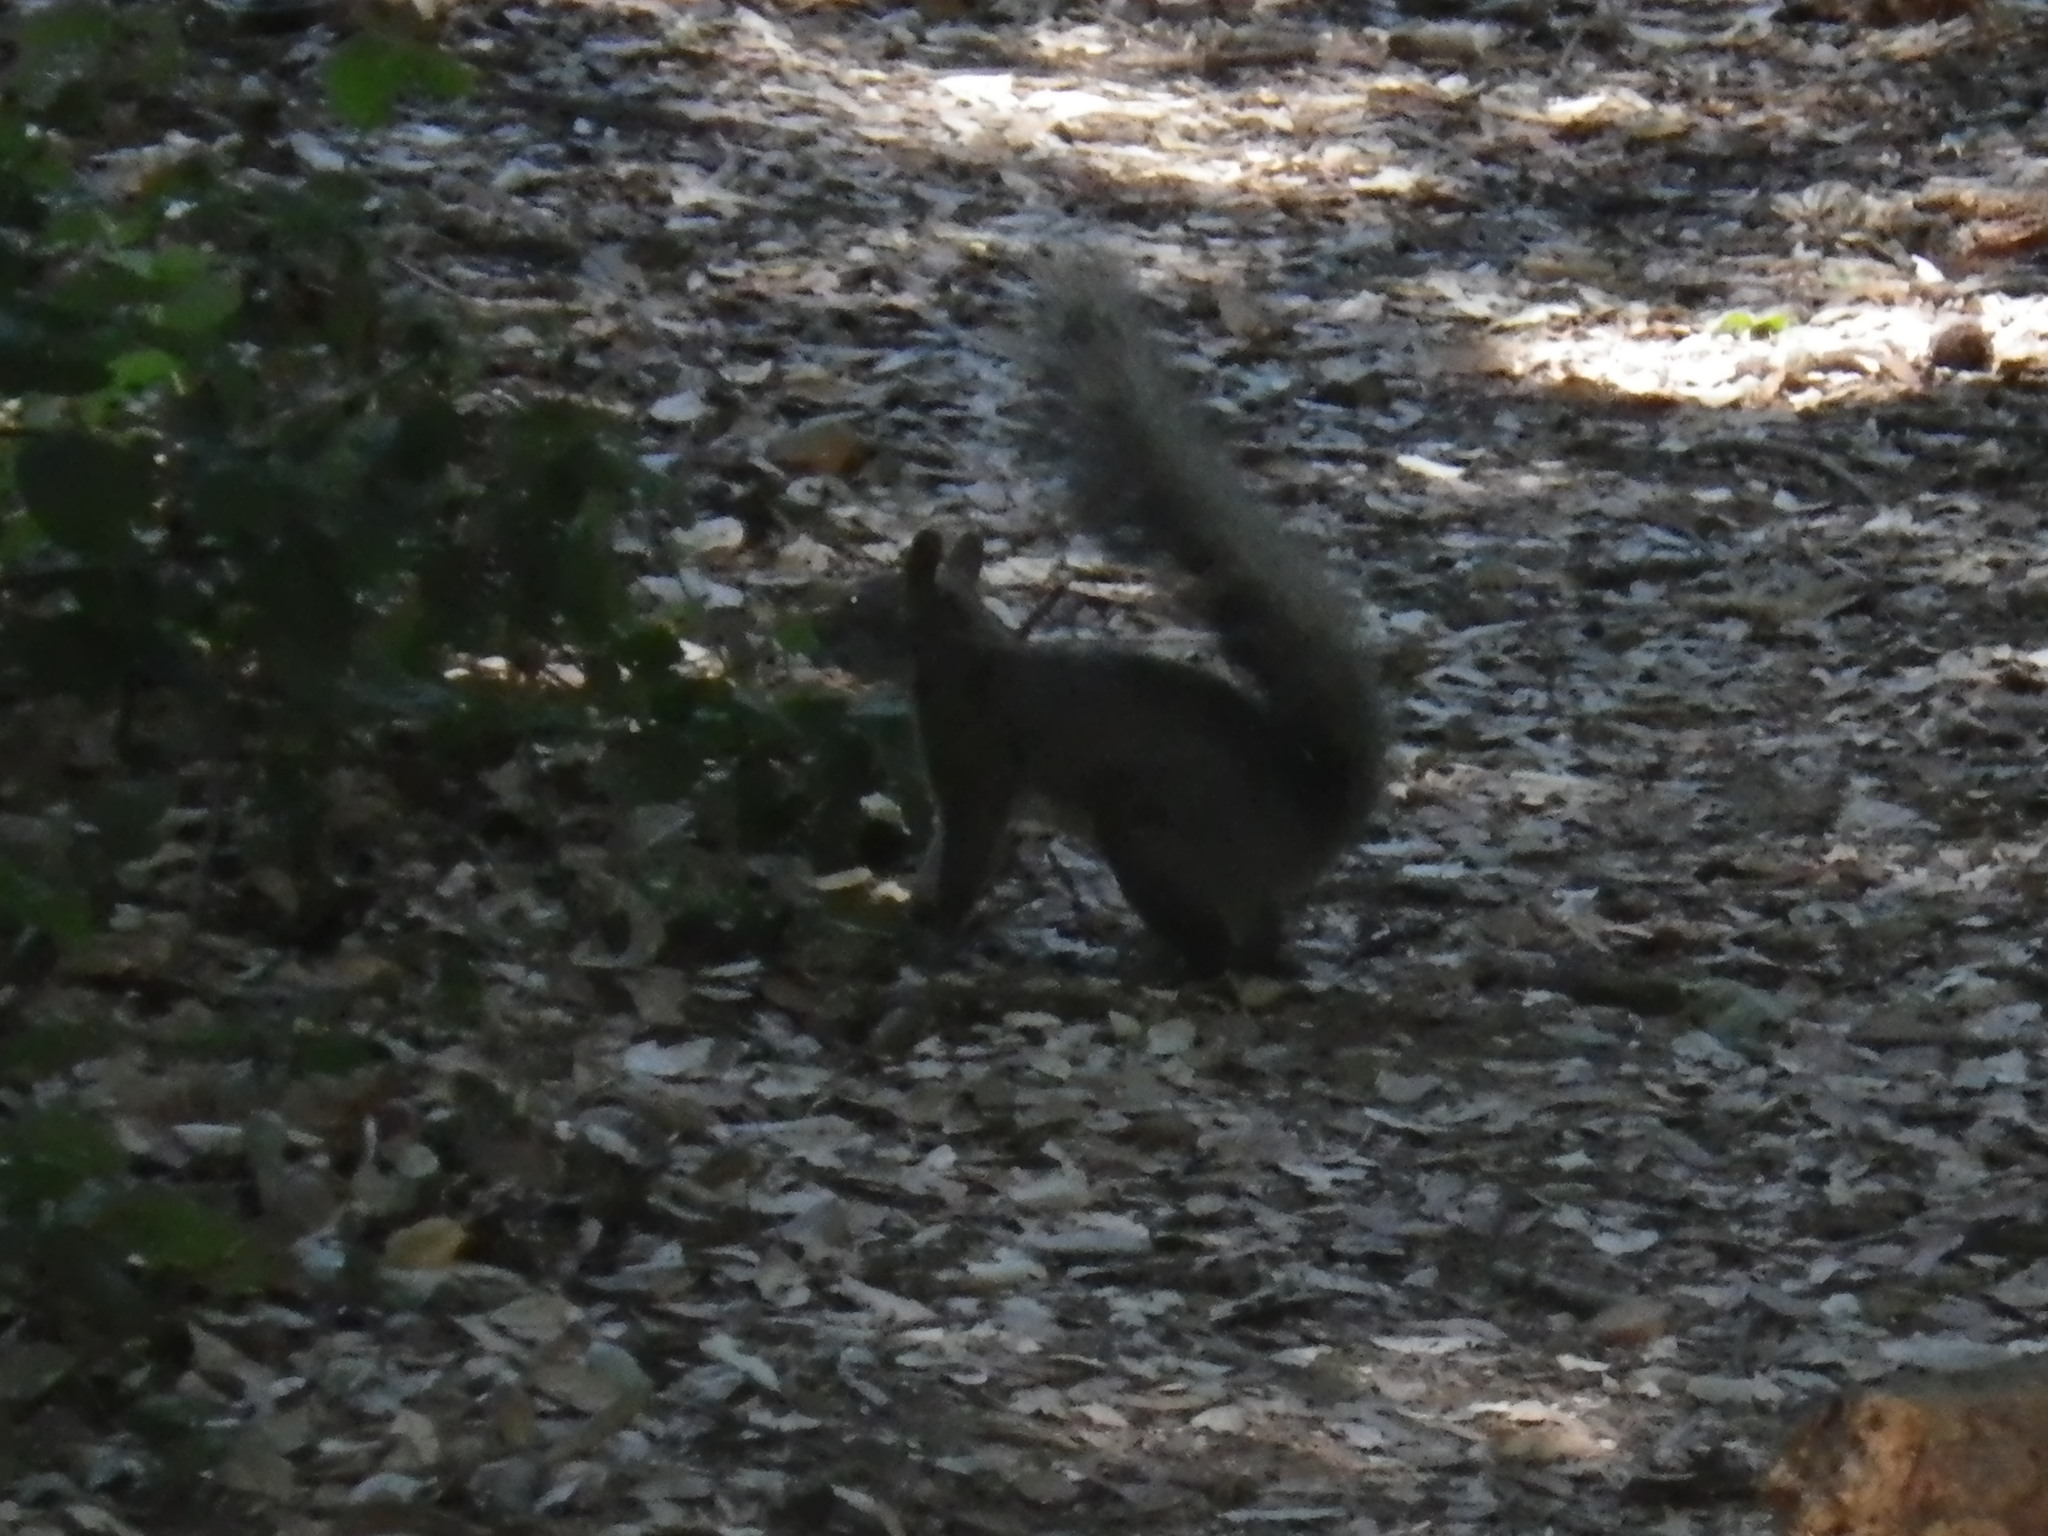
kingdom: Animalia
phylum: Chordata
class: Mammalia
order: Rodentia
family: Sciuridae
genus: Sciurus
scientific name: Sciurus griseus
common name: Western gray squirrel
